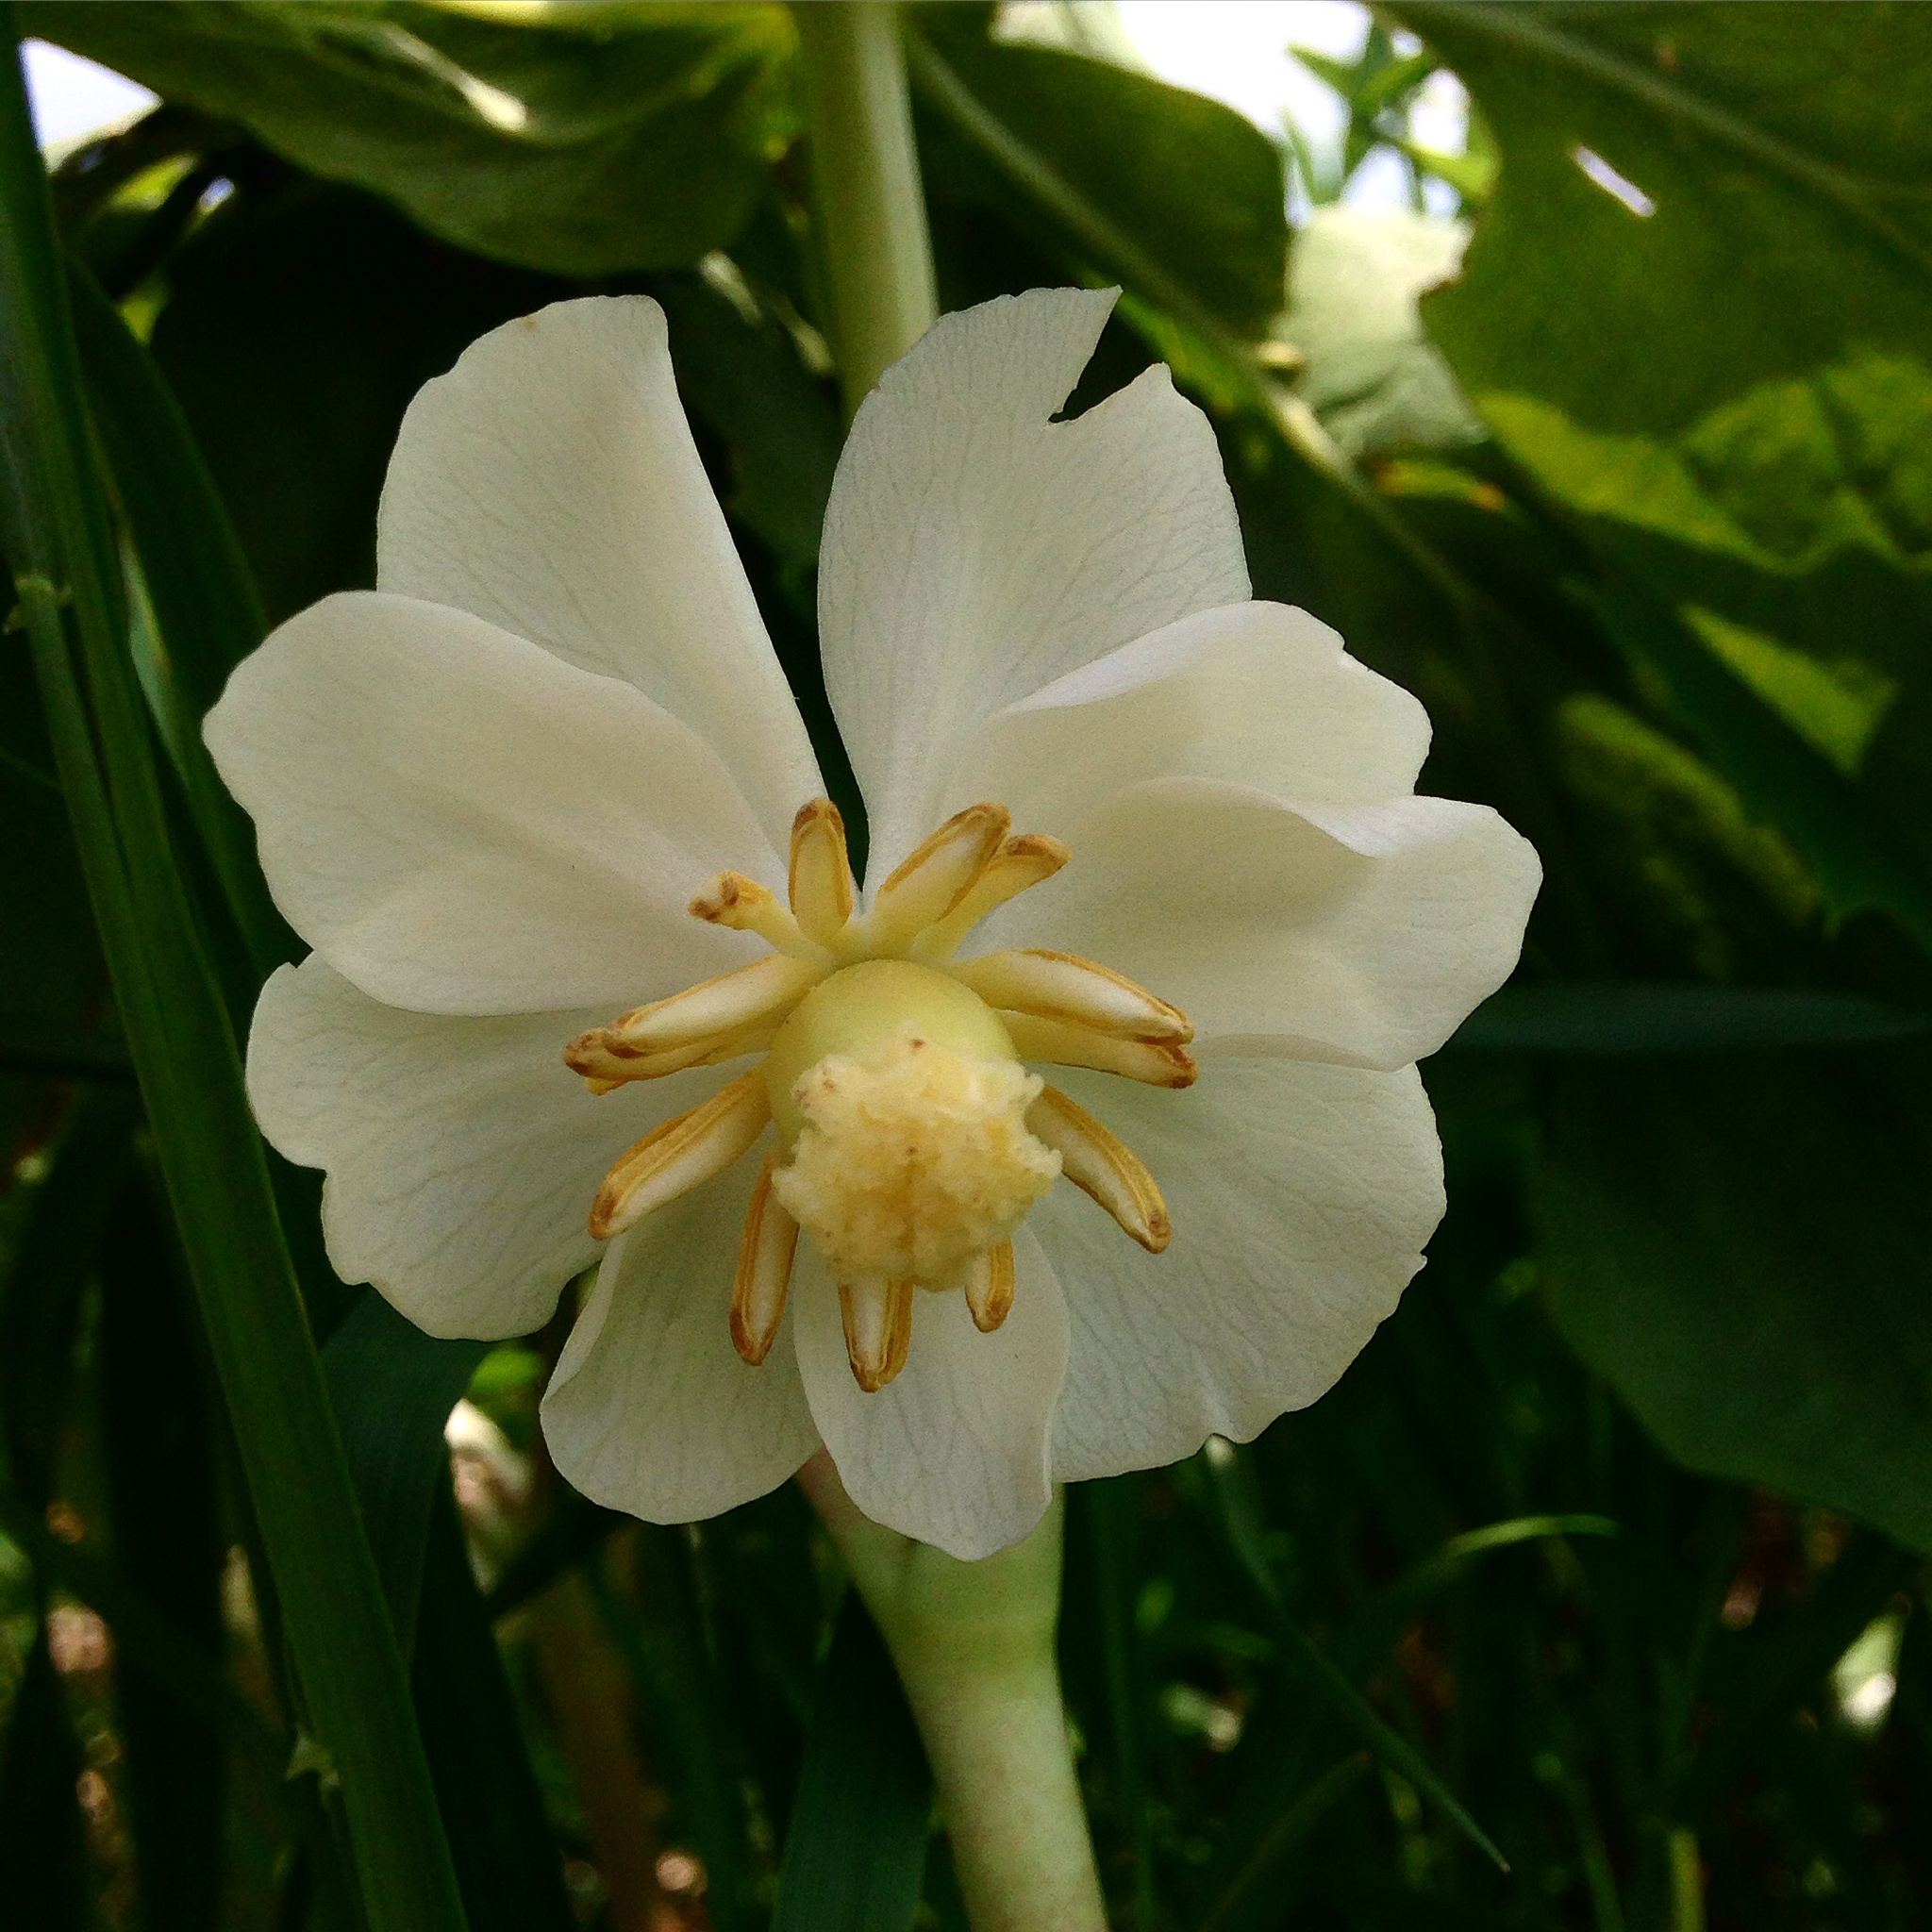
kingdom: Plantae
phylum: Tracheophyta
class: Magnoliopsida
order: Ranunculales
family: Berberidaceae
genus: Podophyllum
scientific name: Podophyllum peltatum
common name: Wild mandrake
